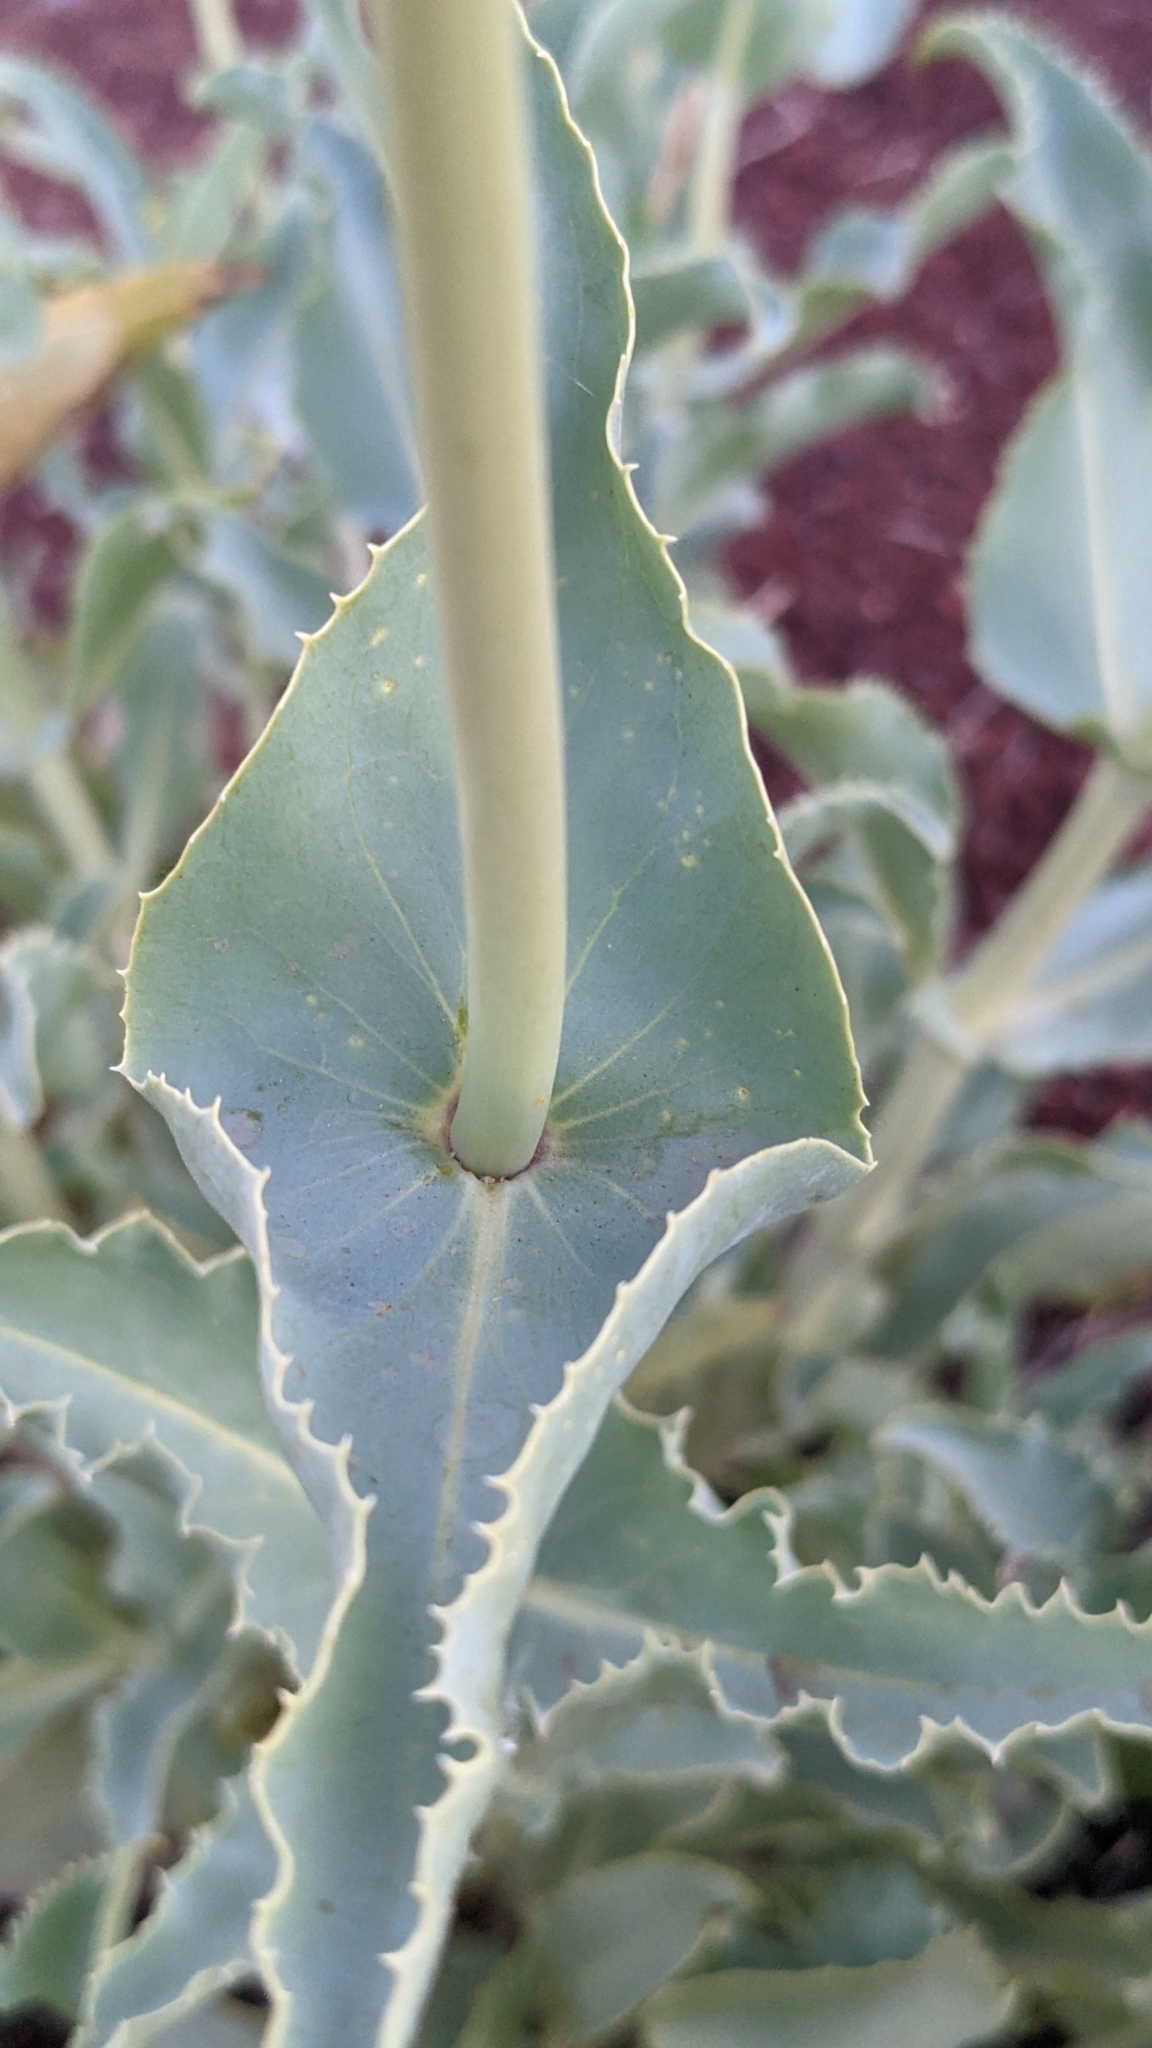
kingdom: Plantae
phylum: Tracheophyta
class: Magnoliopsida
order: Lamiales
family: Plantaginaceae
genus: Penstemon
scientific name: Penstemon palmeri
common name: Palmer penstemon
